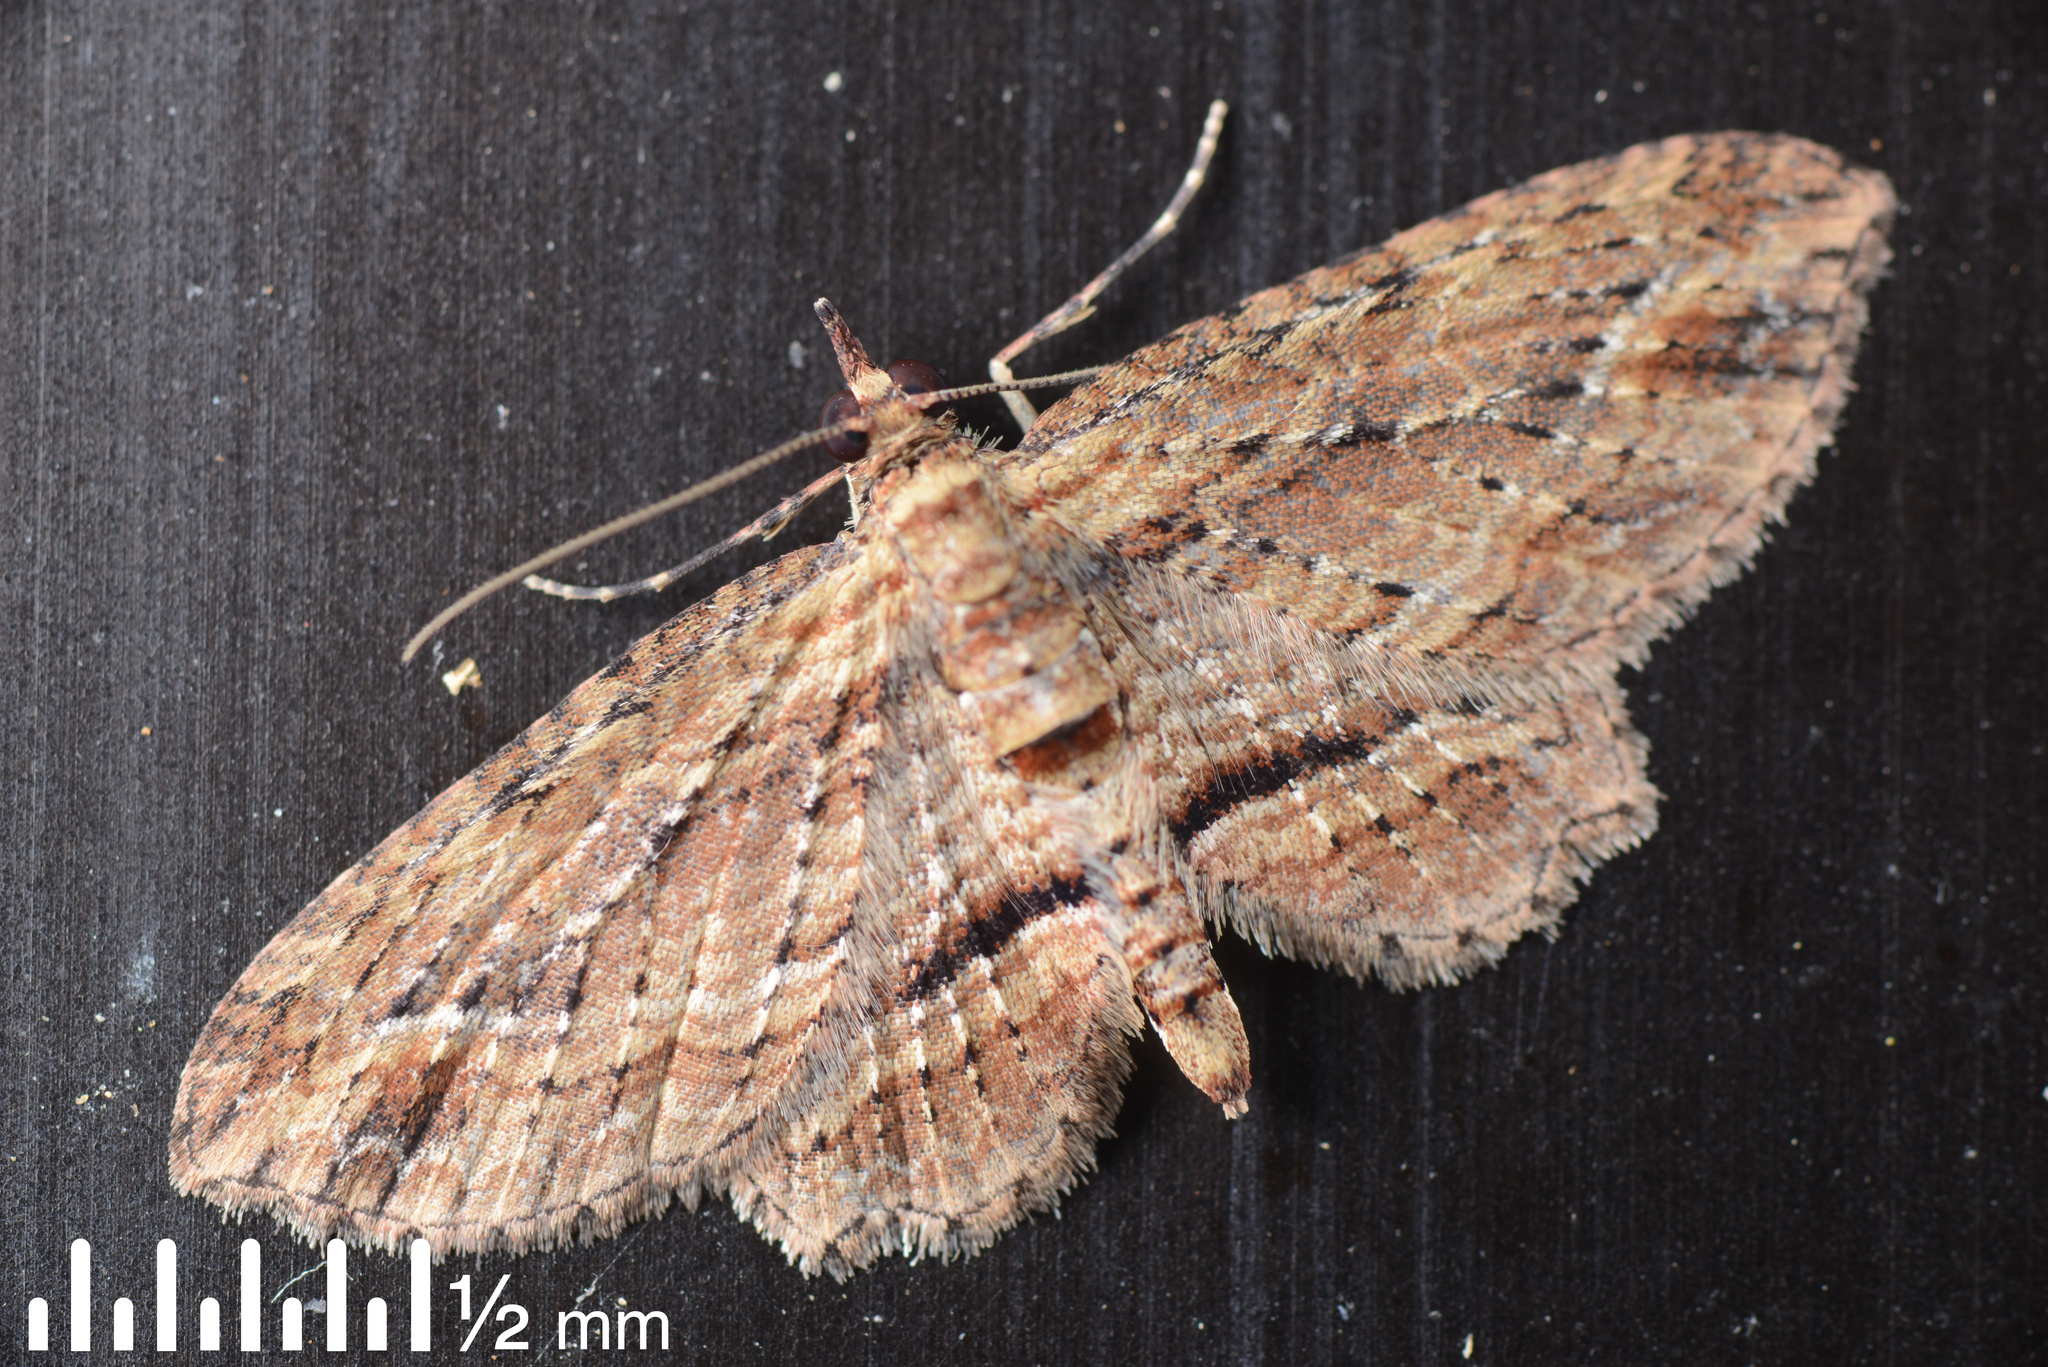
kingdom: Animalia
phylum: Arthropoda
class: Insecta
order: Lepidoptera
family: Geometridae
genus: Chloroclystis
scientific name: Chloroclystis filata
